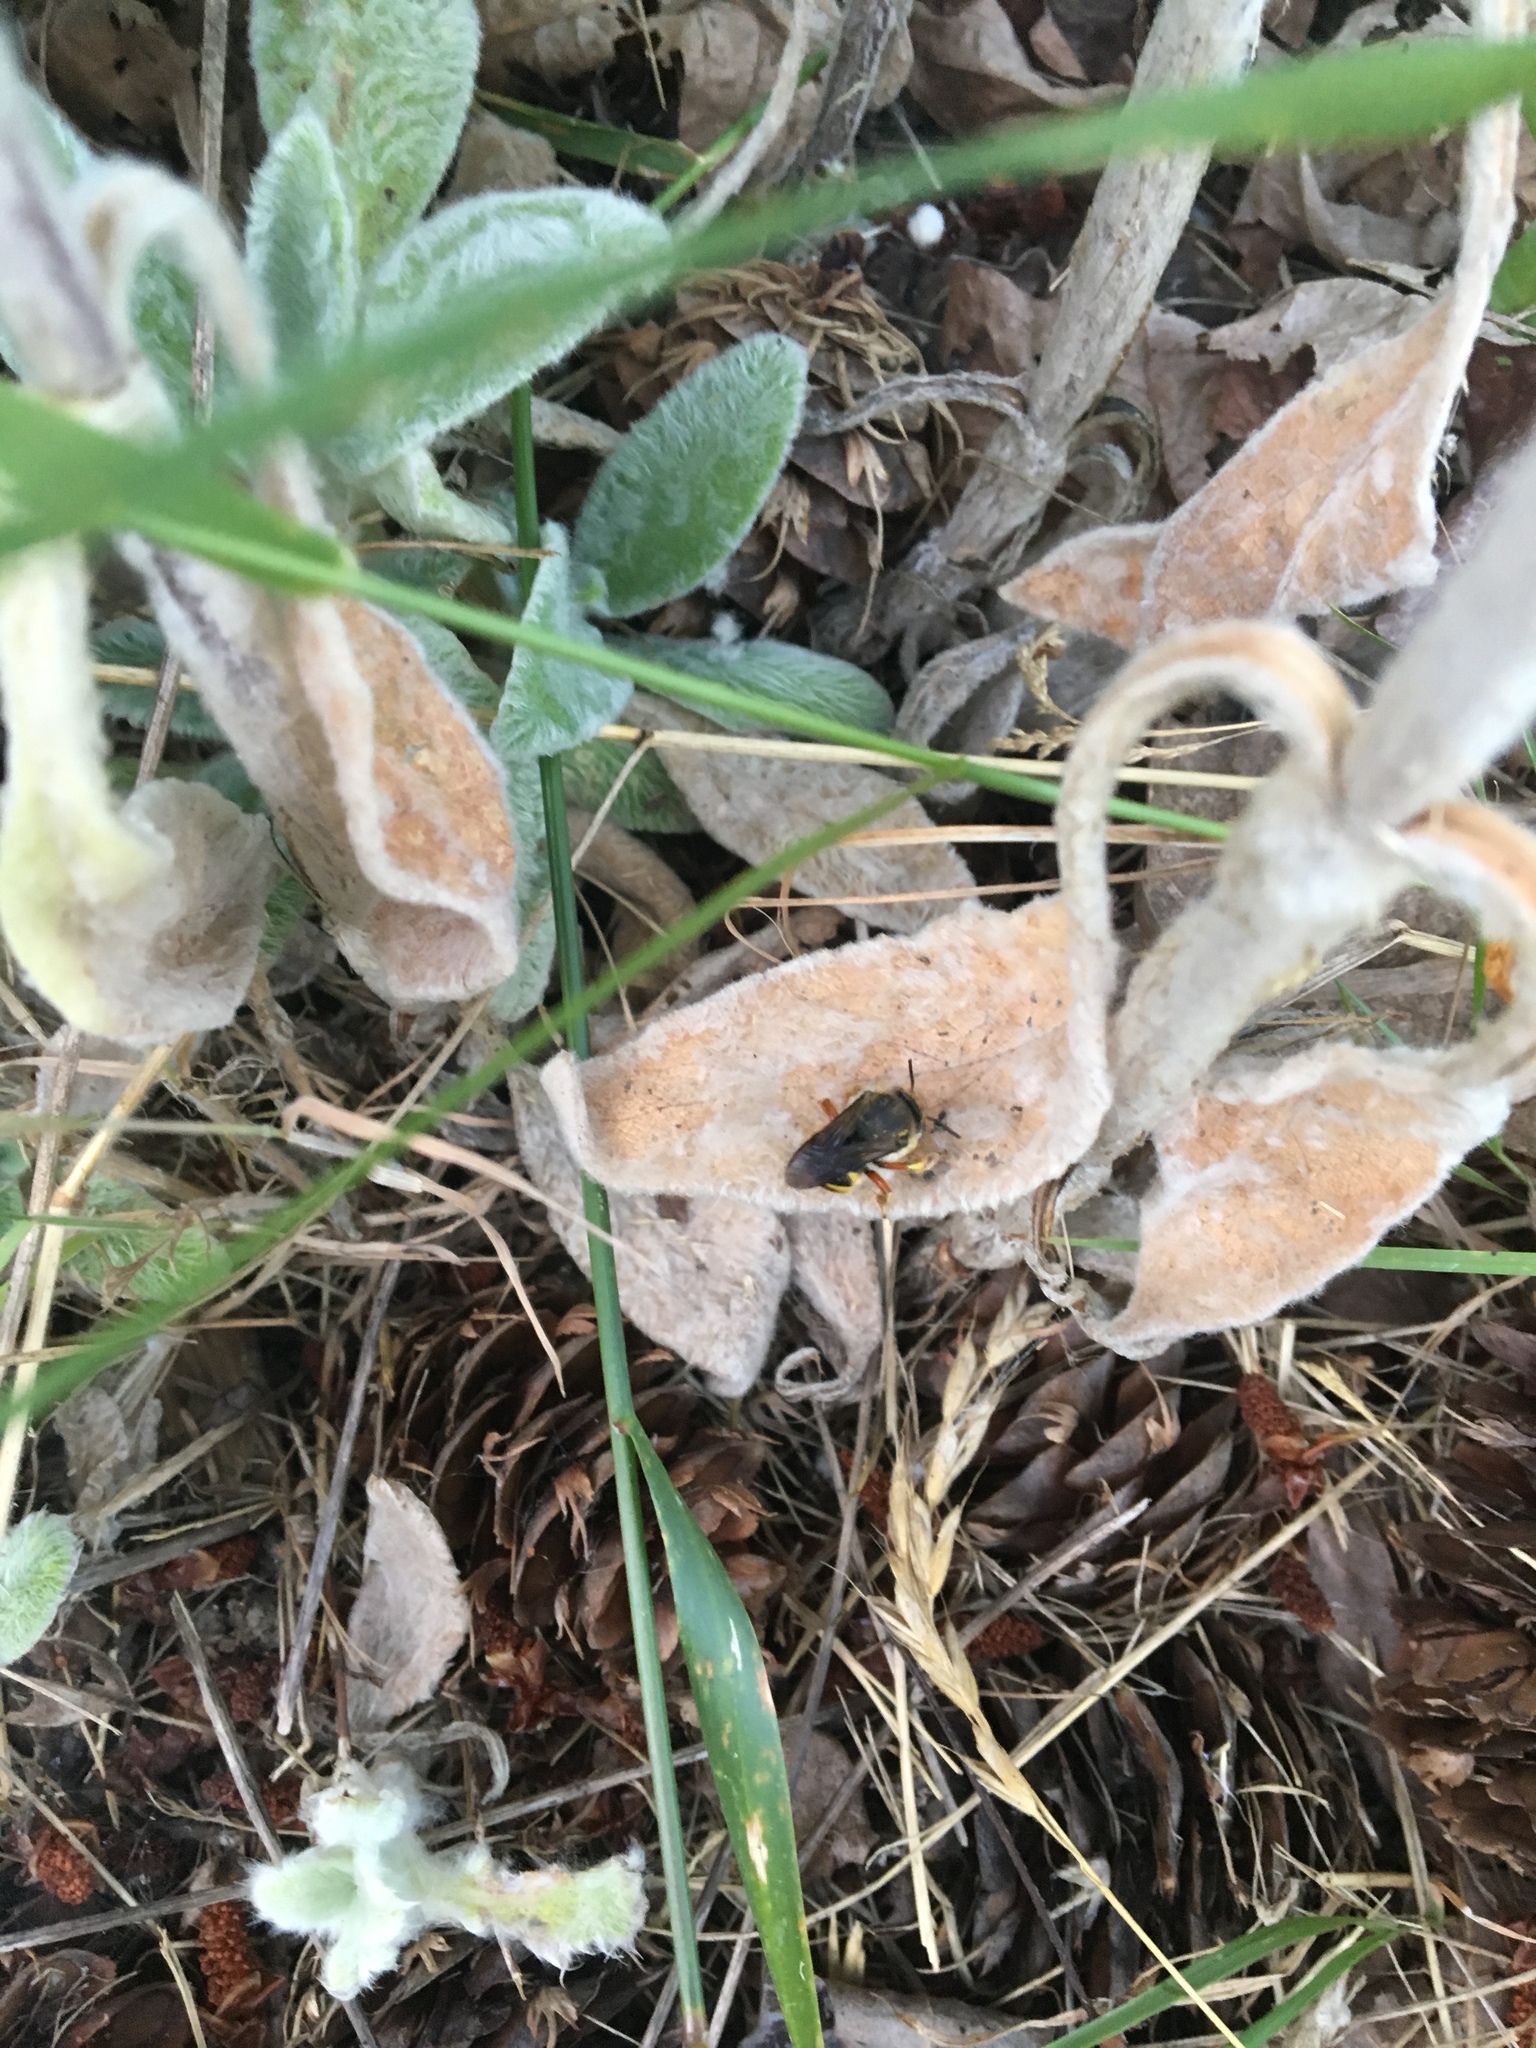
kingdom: Animalia
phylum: Arthropoda
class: Insecta
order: Hymenoptera
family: Megachilidae
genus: Anthidium
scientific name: Anthidium manicatum
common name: Wool carder bee
